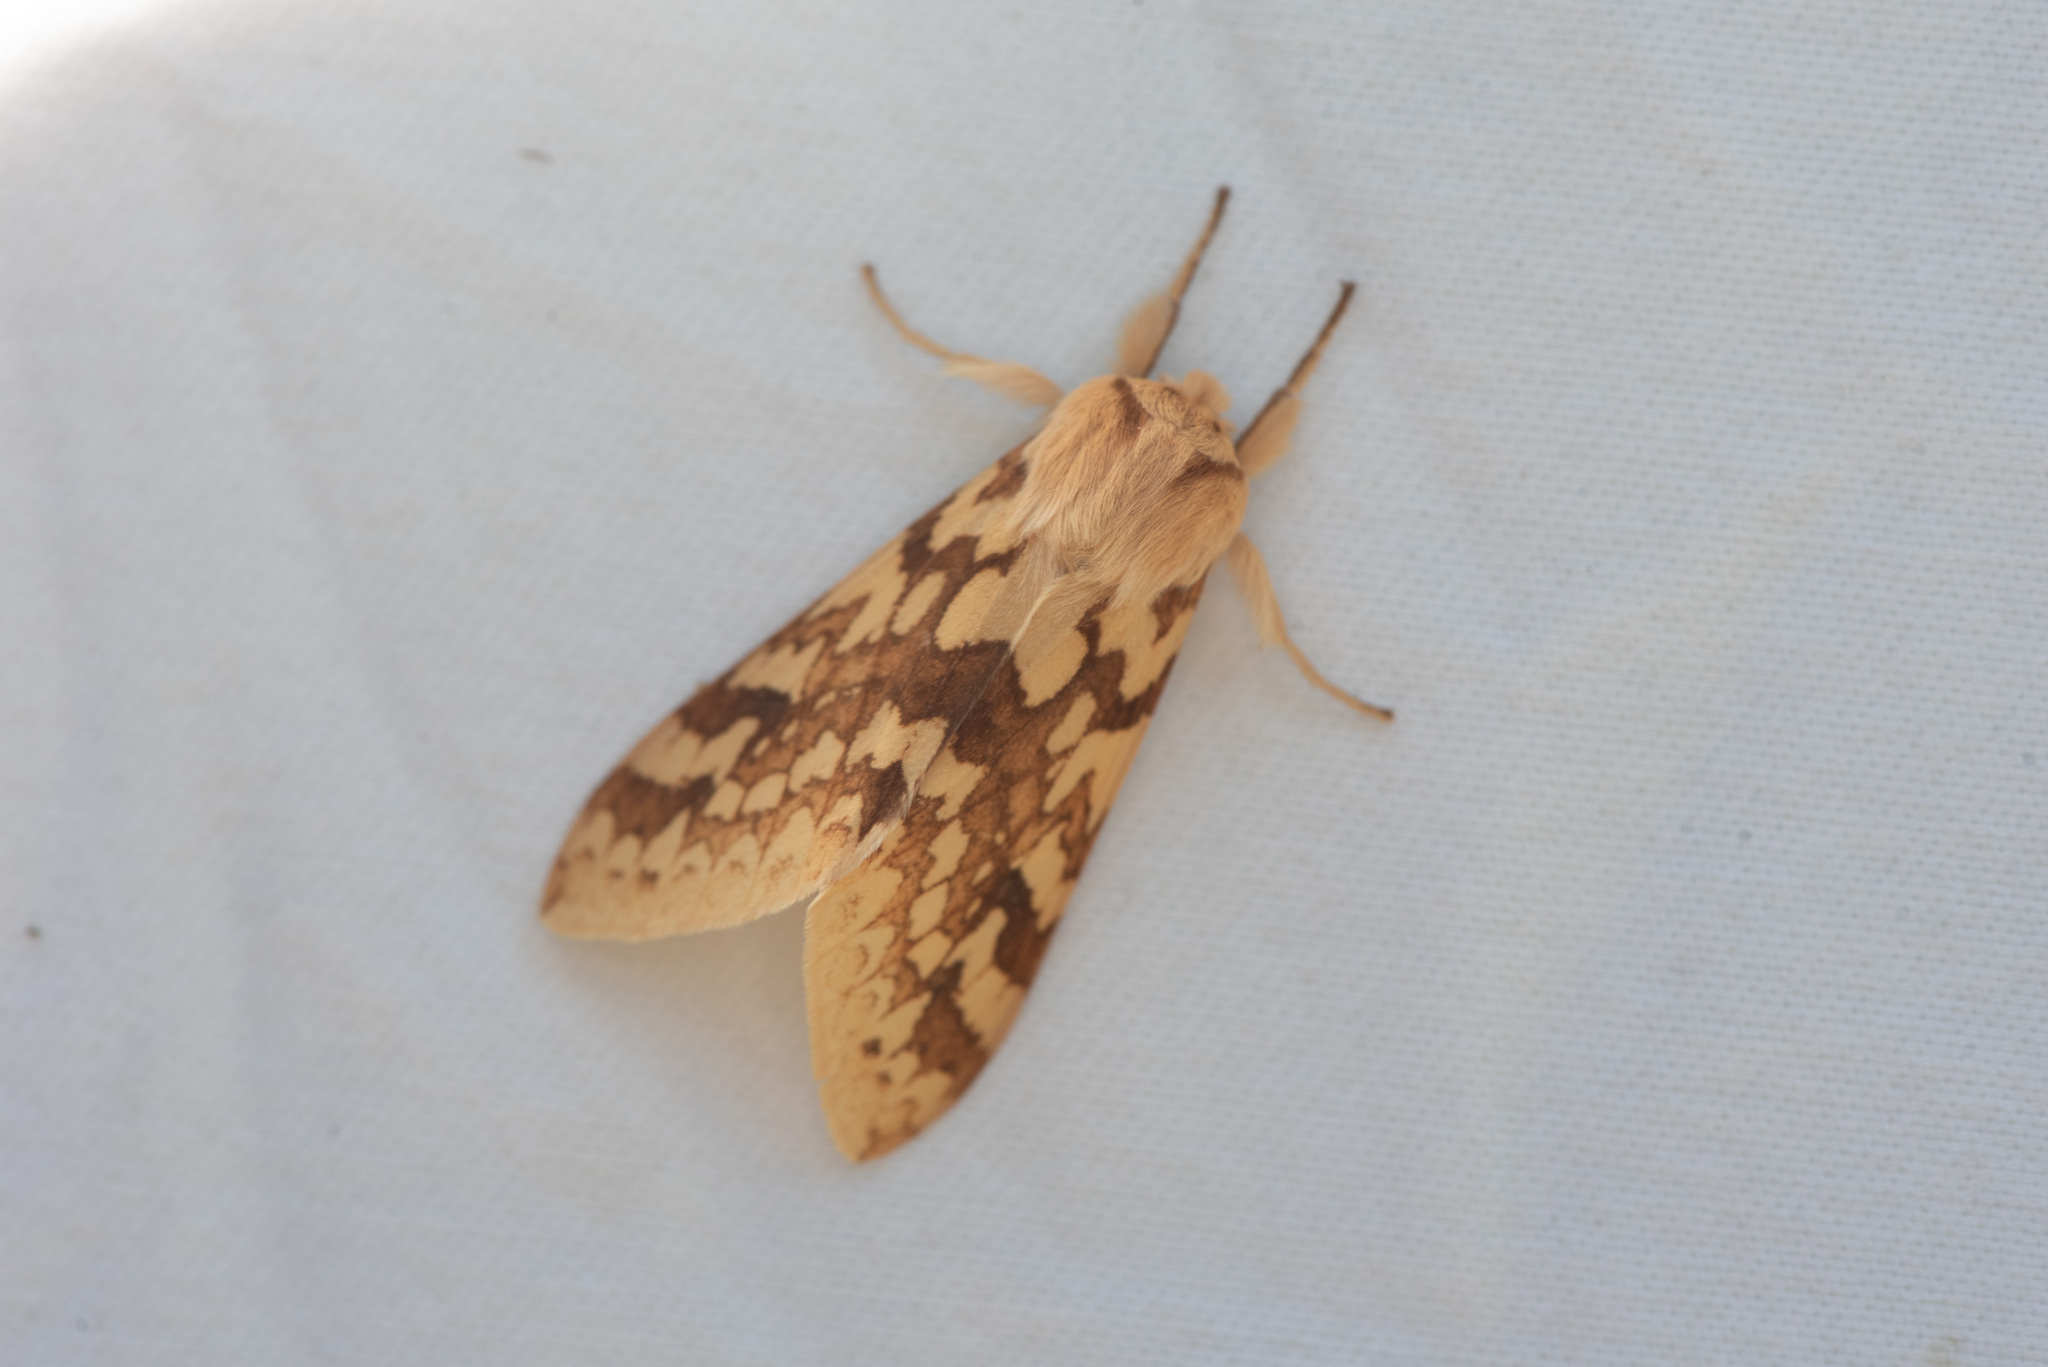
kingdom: Animalia
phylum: Arthropoda
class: Insecta
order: Lepidoptera
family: Erebidae
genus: Lophocampa
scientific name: Lophocampa maculata
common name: Spotted tussock moth
